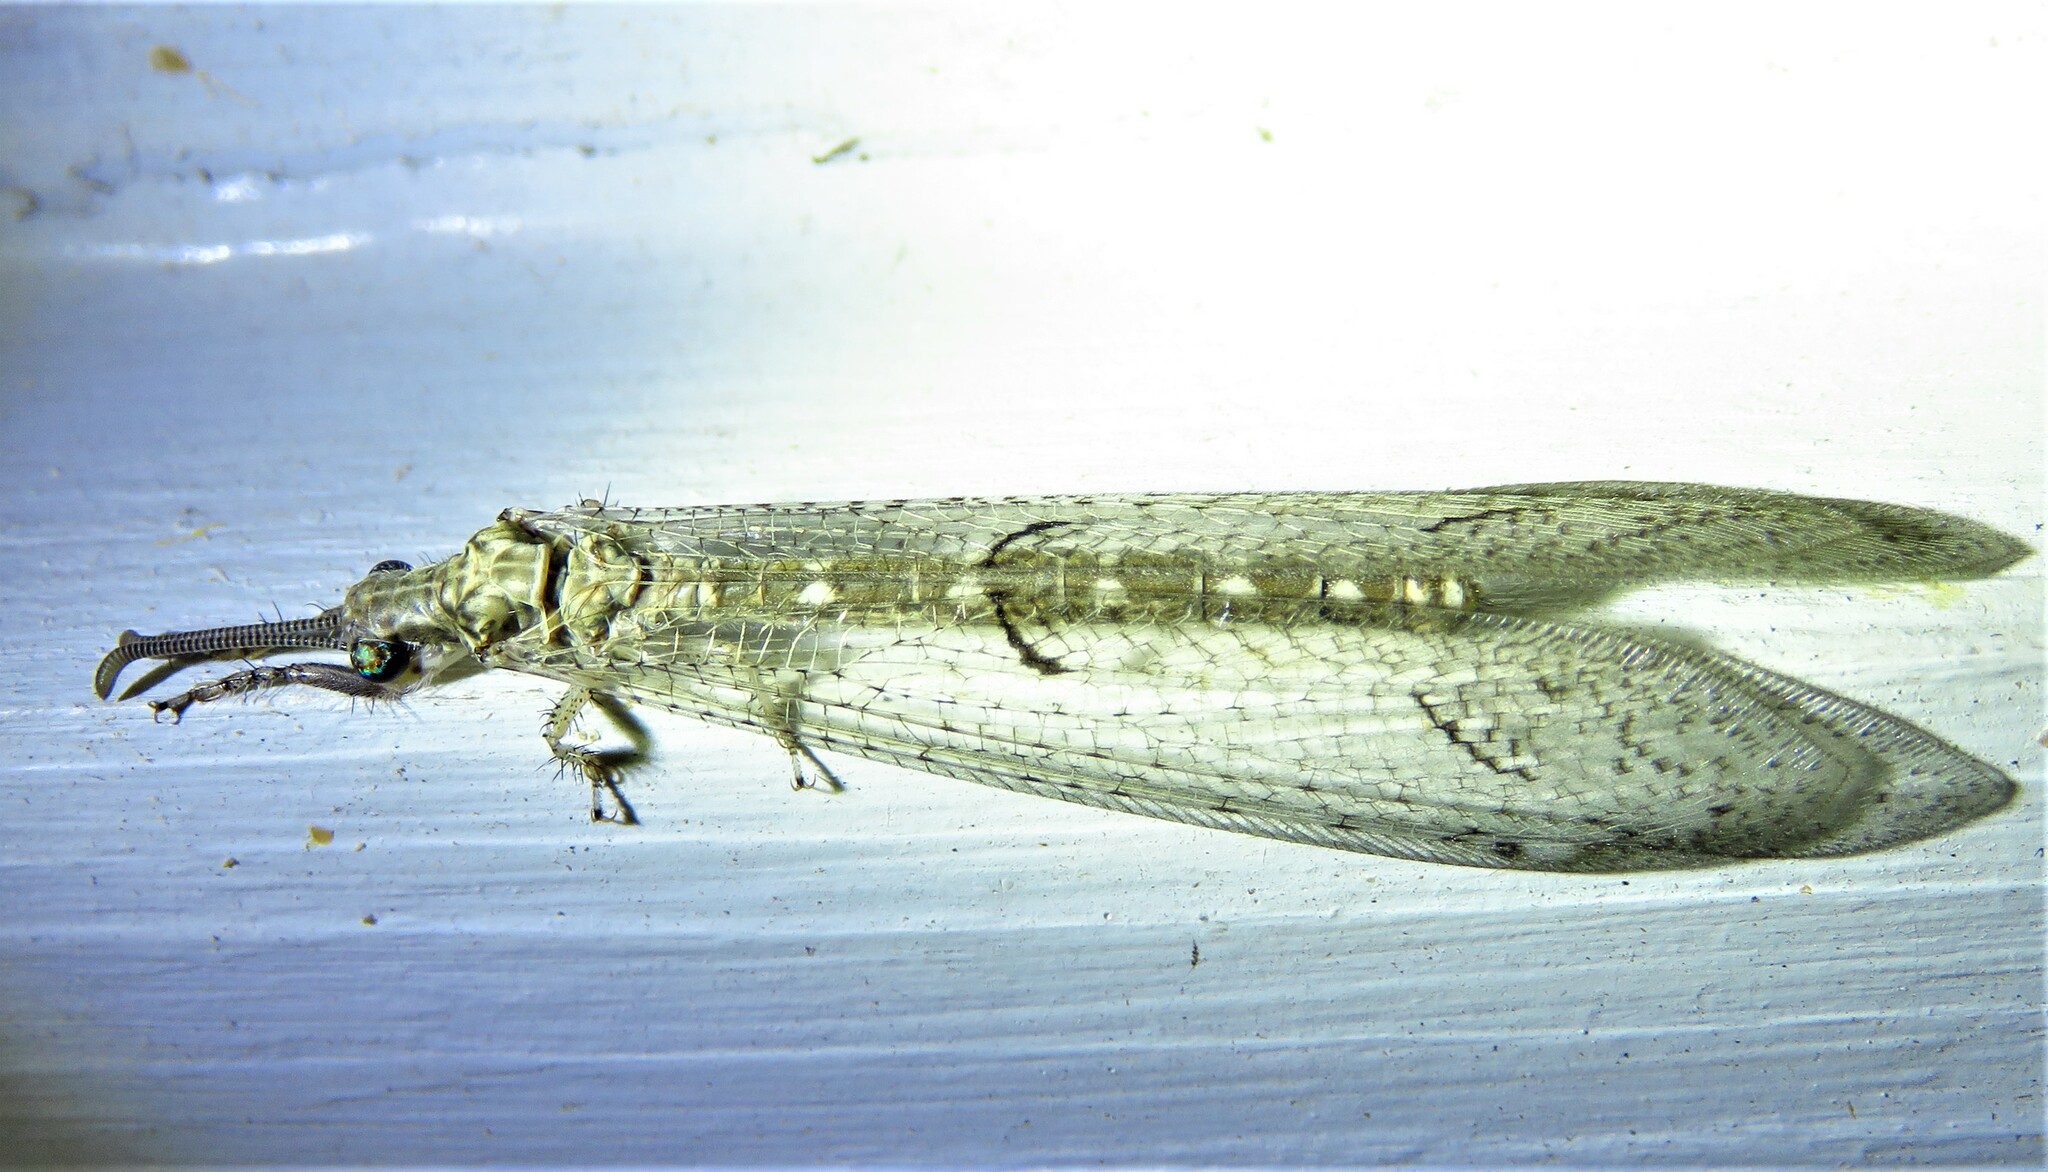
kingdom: Animalia
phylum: Arthropoda
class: Insecta
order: Neuroptera
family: Myrmeleontidae
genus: Euptilon
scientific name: Euptilon ornatum
